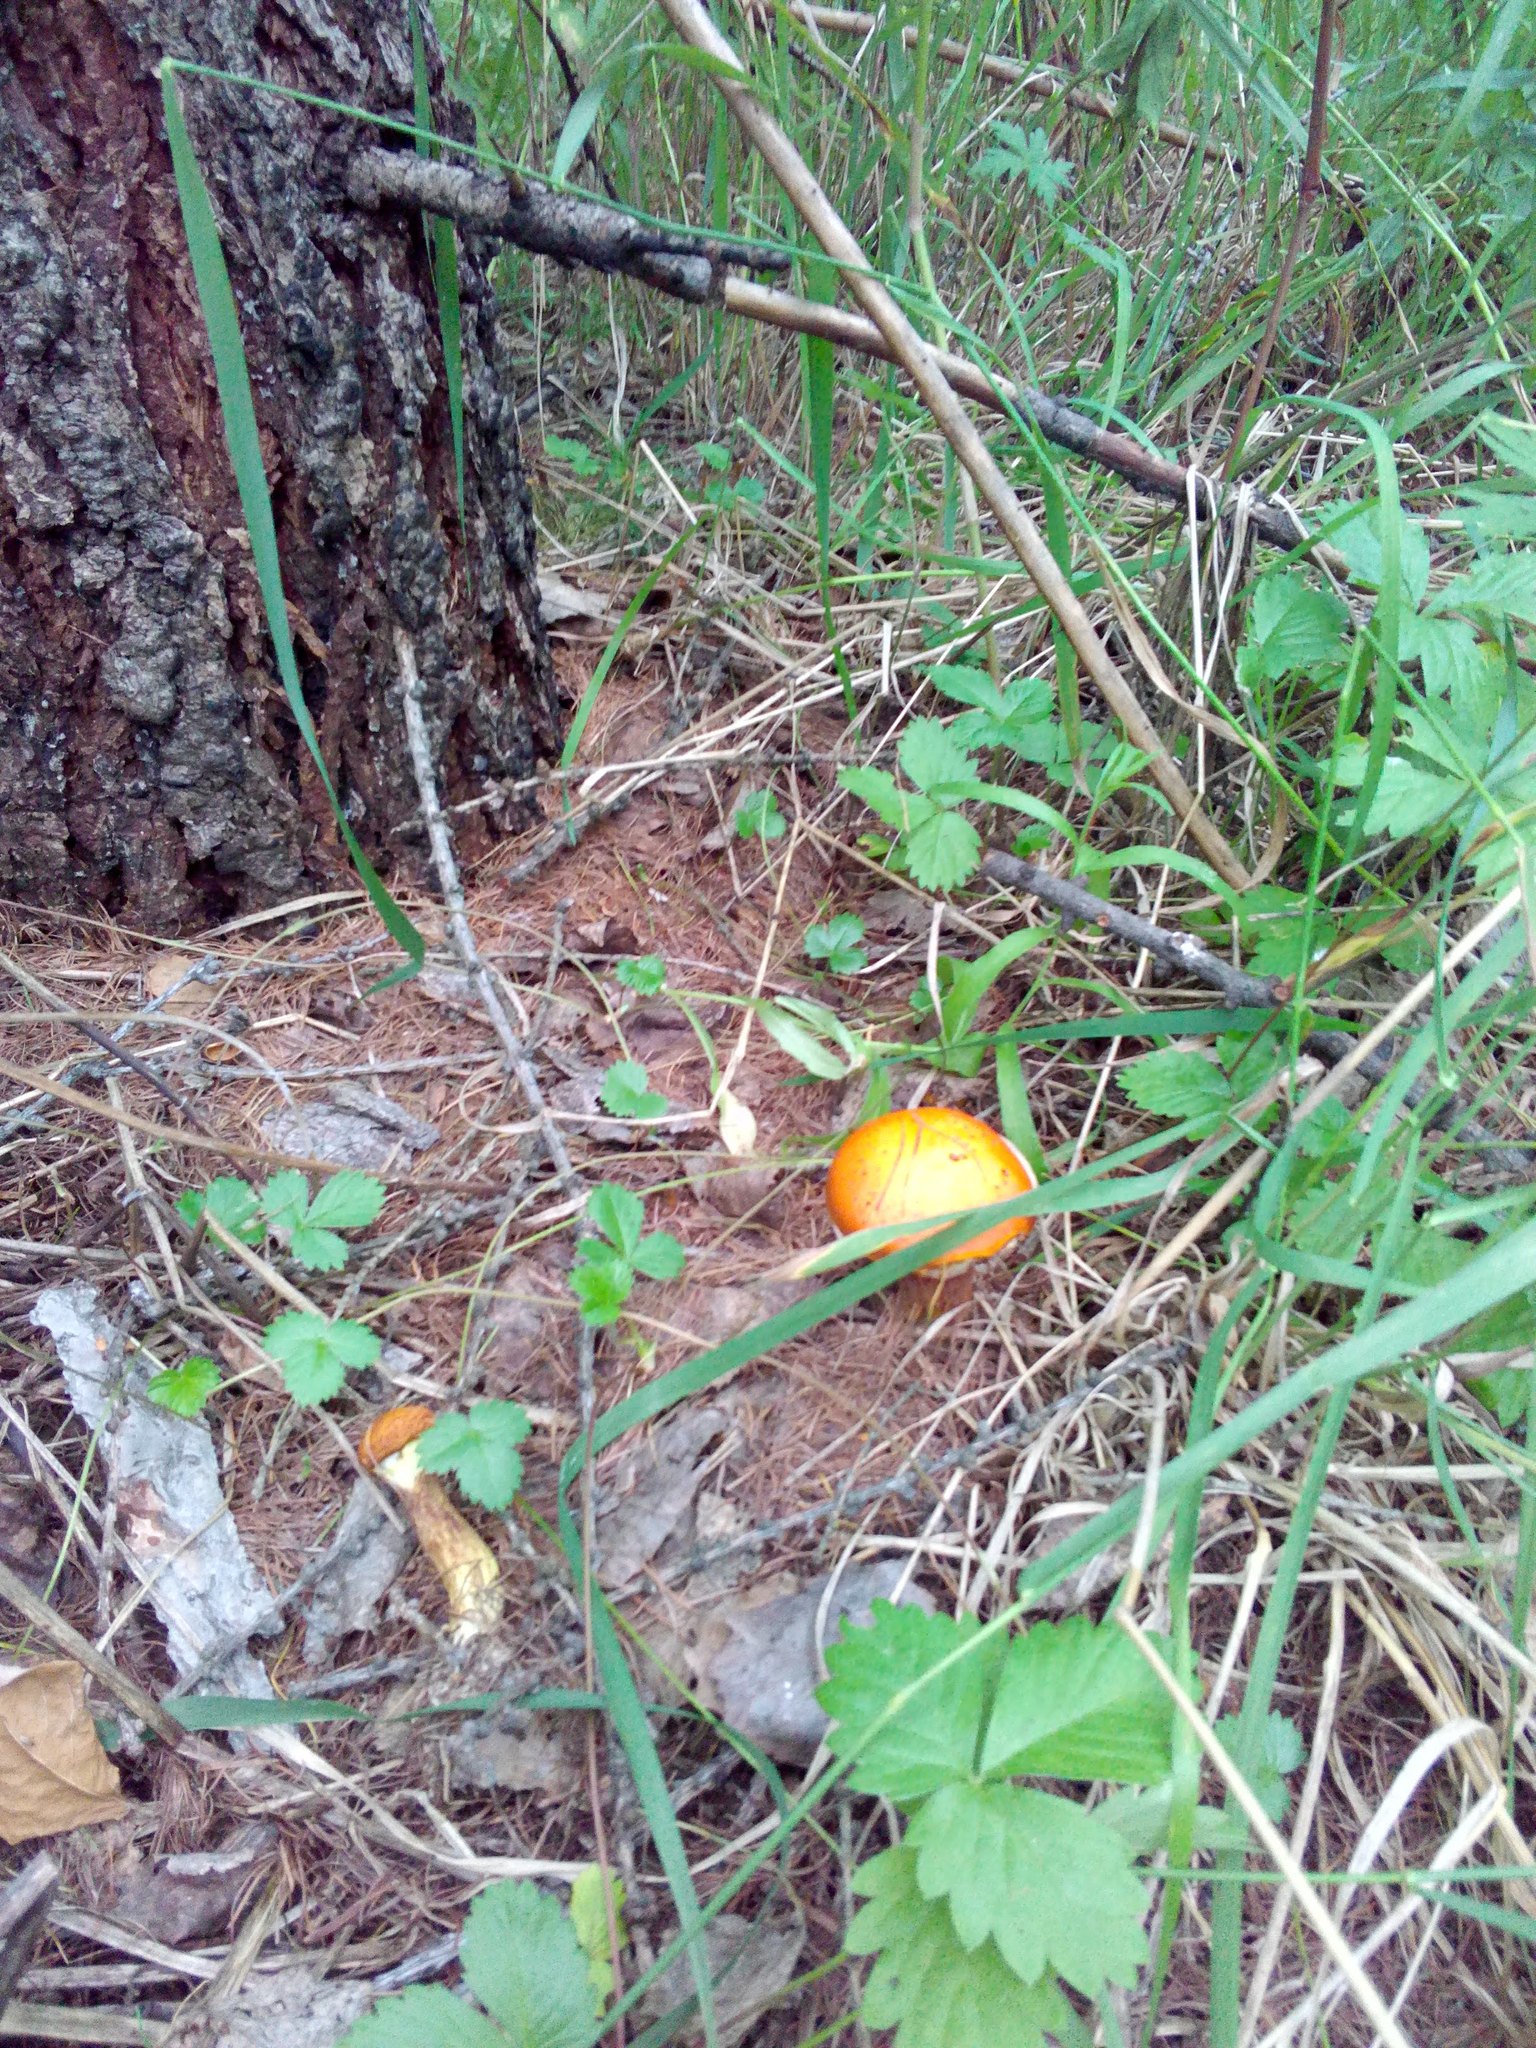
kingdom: Fungi
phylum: Basidiomycota
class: Agaricomycetes
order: Boletales
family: Suillaceae
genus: Suillus
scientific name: Suillus grevillei
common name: Larch bolete
